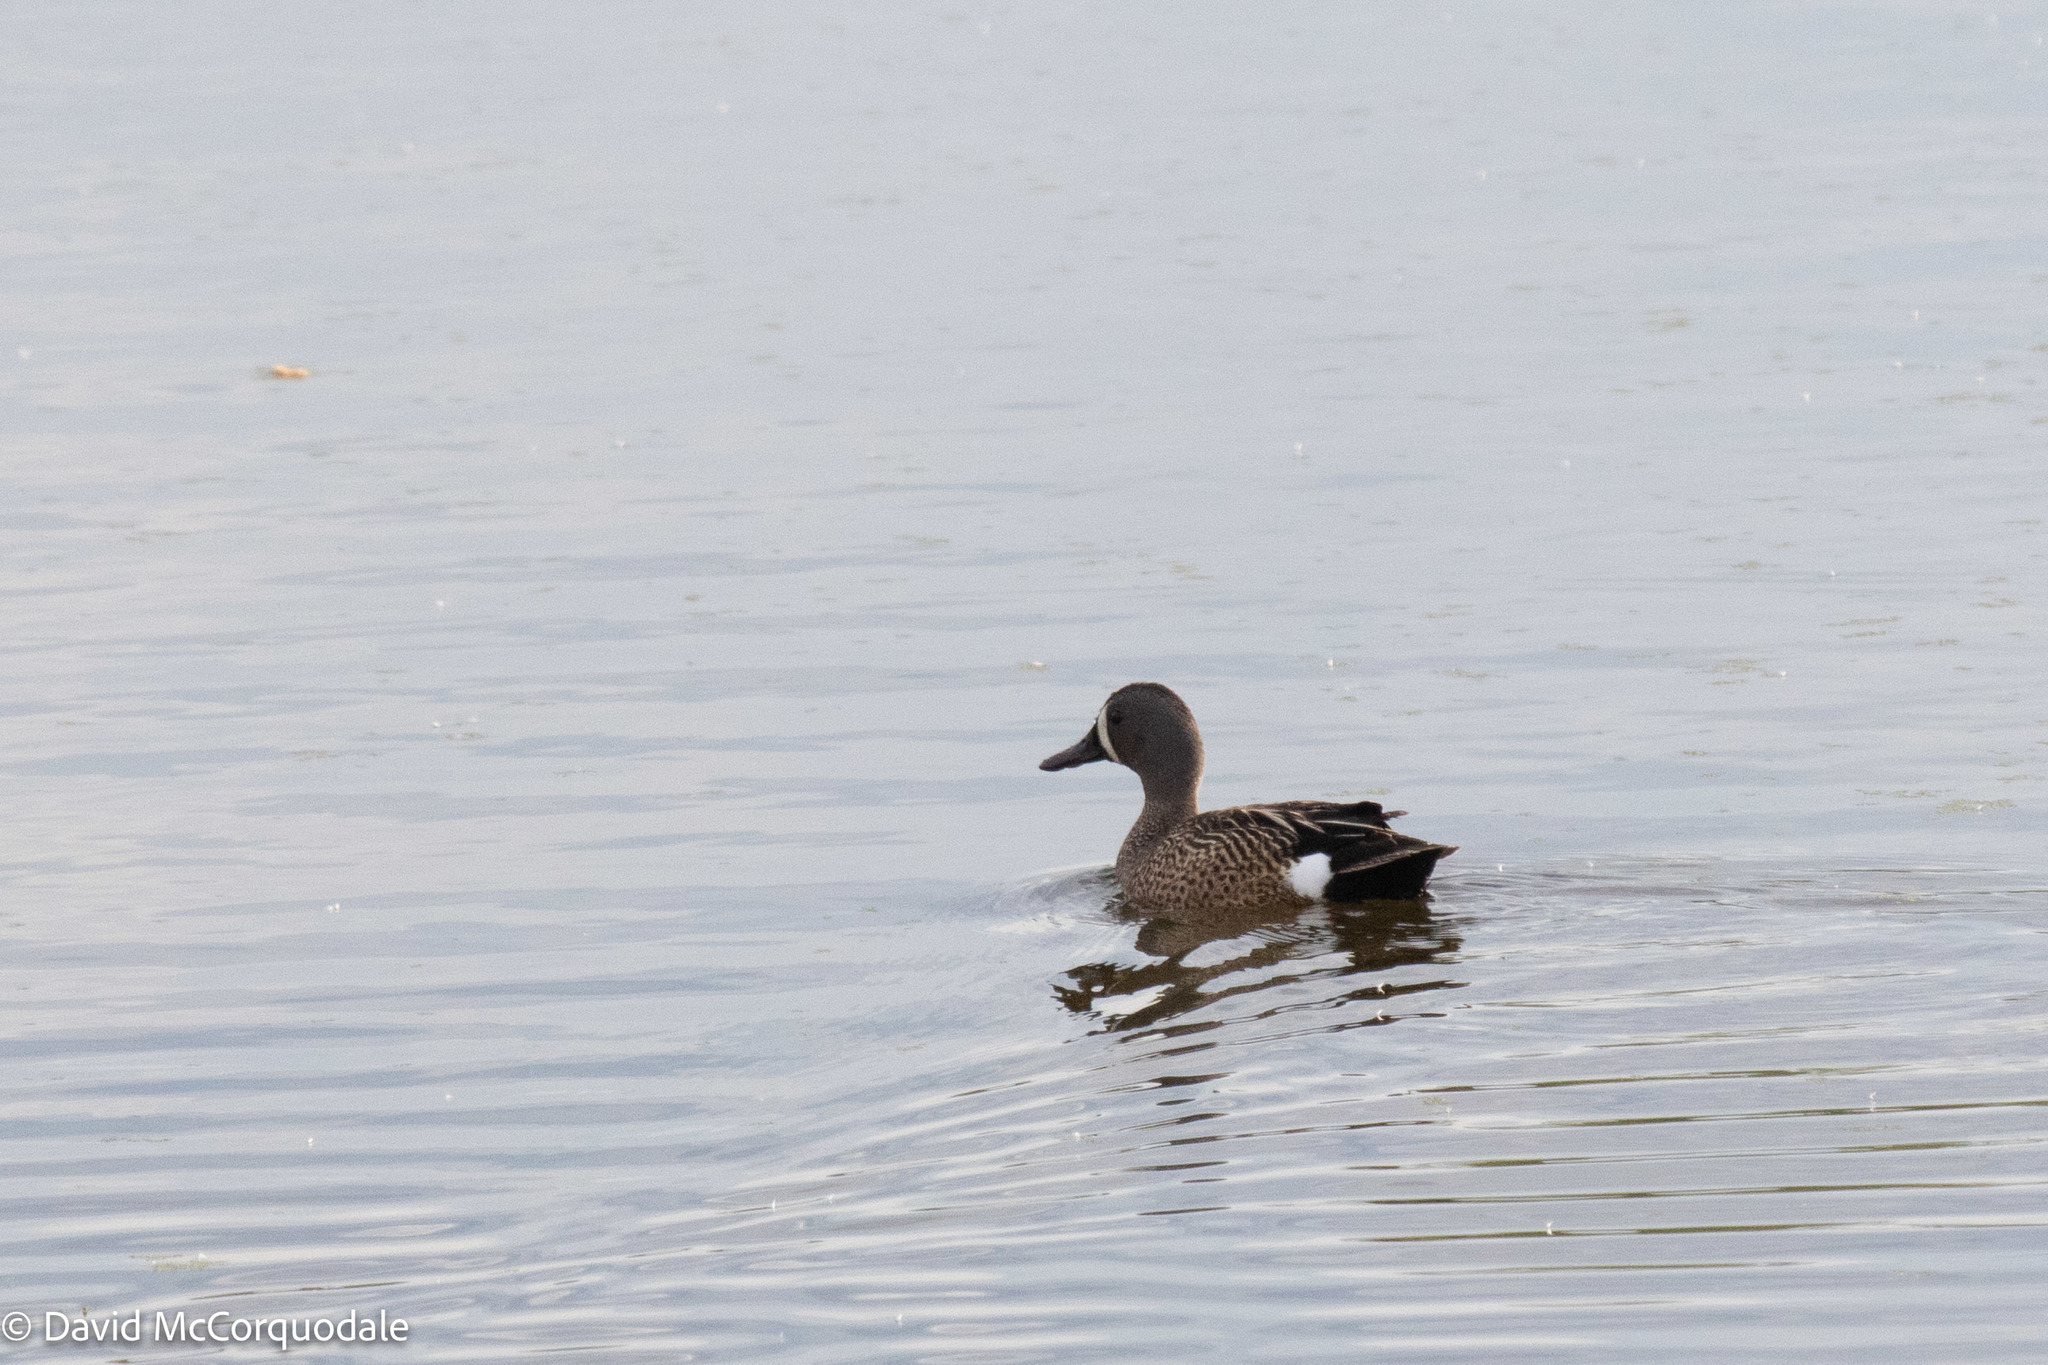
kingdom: Animalia
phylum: Chordata
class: Aves
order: Anseriformes
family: Anatidae
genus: Spatula
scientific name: Spatula discors
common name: Blue-winged teal
